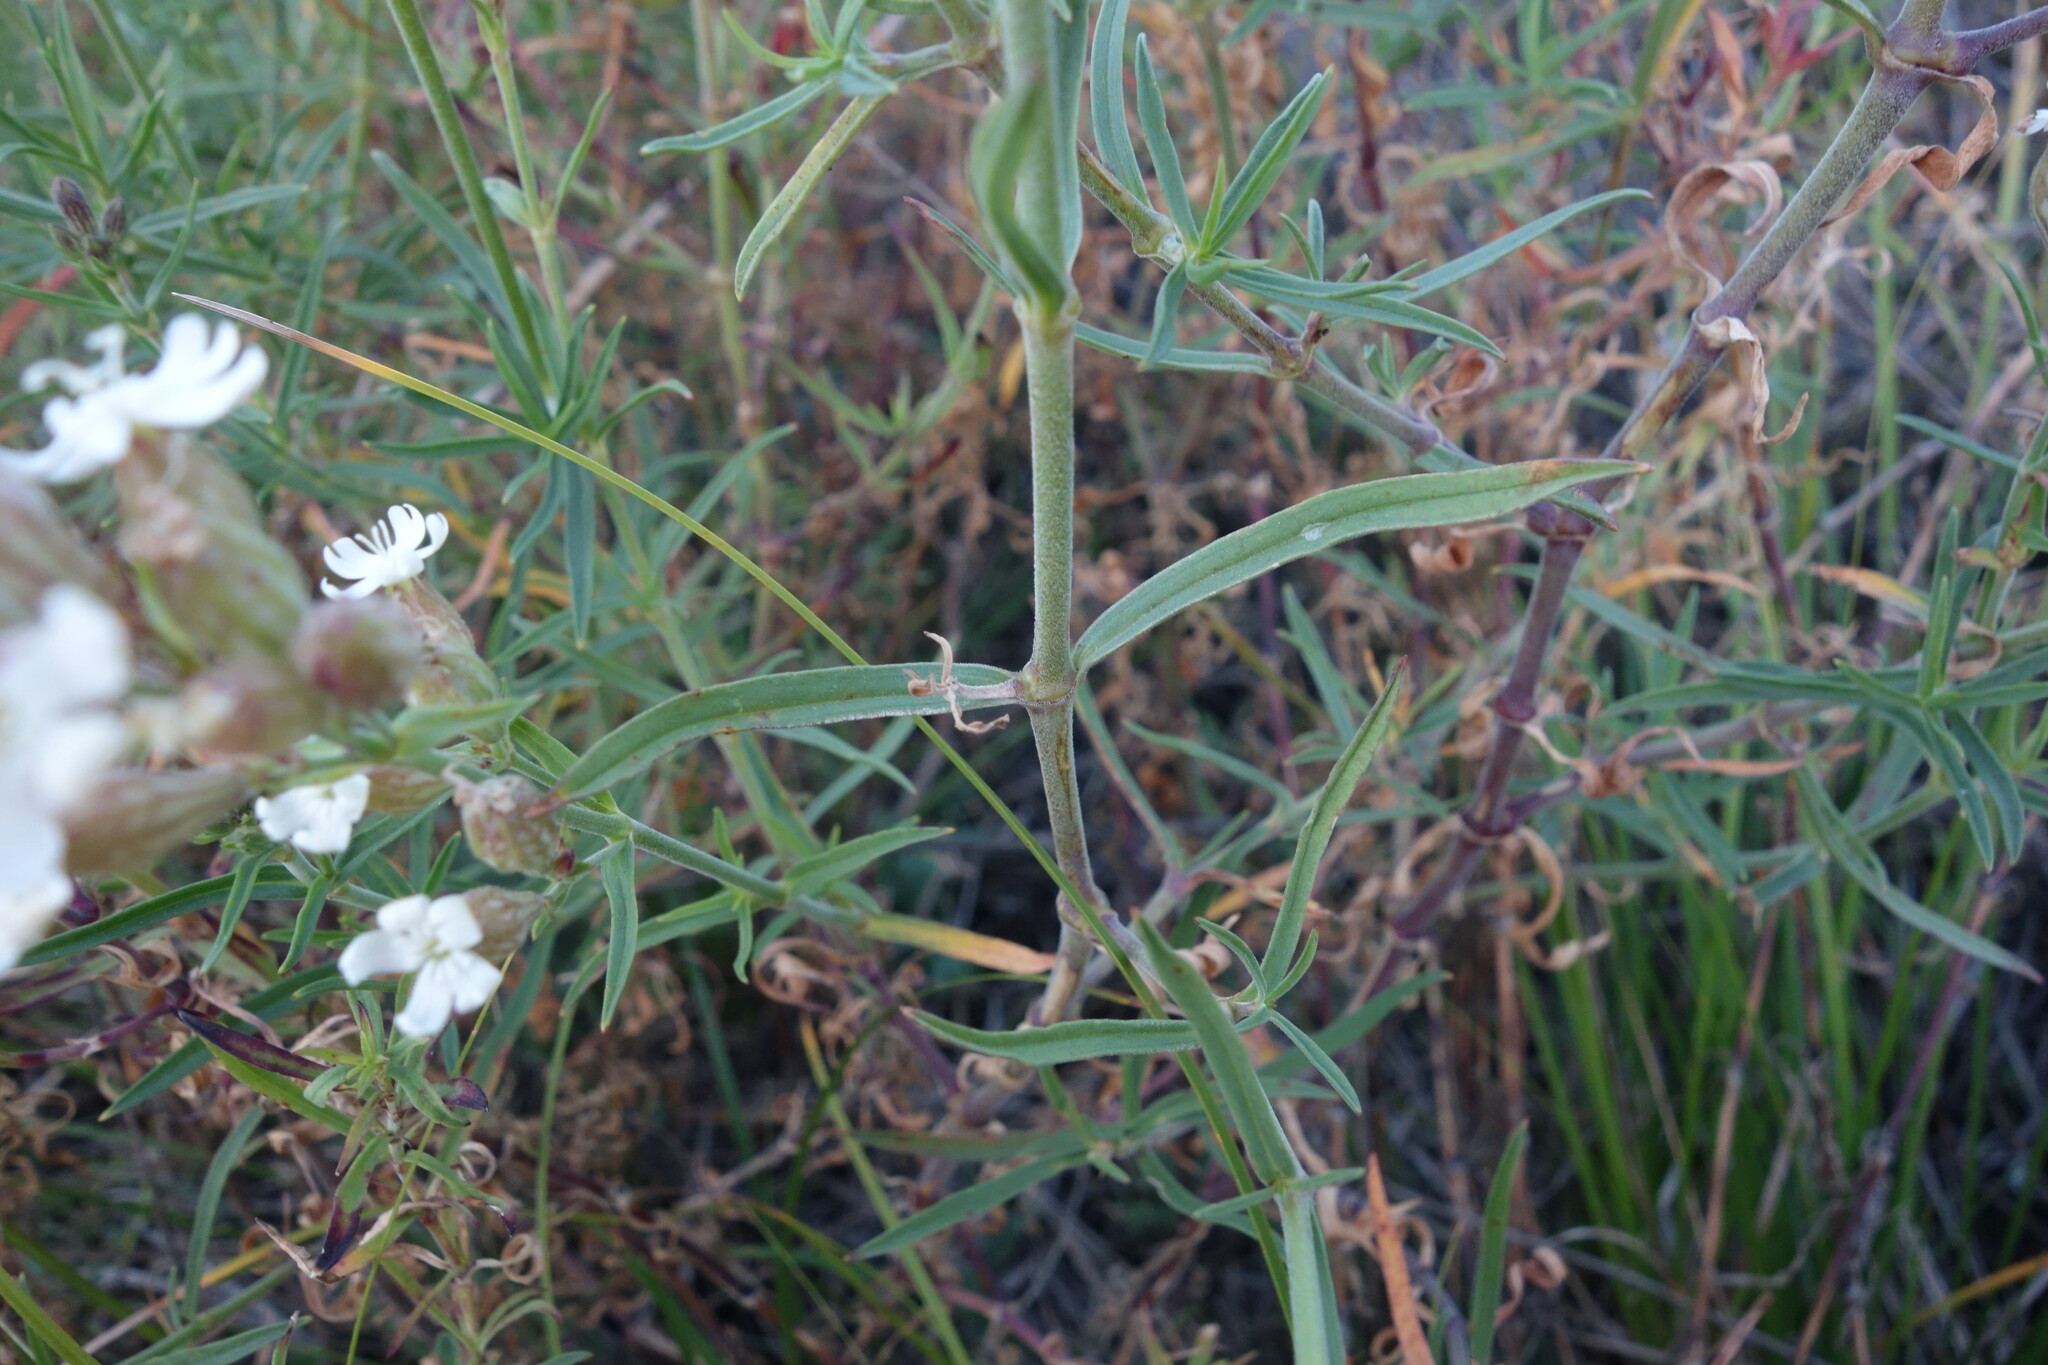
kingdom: Plantae
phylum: Tracheophyta
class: Magnoliopsida
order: Caryophyllales
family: Caryophyllaceae
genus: Silene
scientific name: Silene amoena
